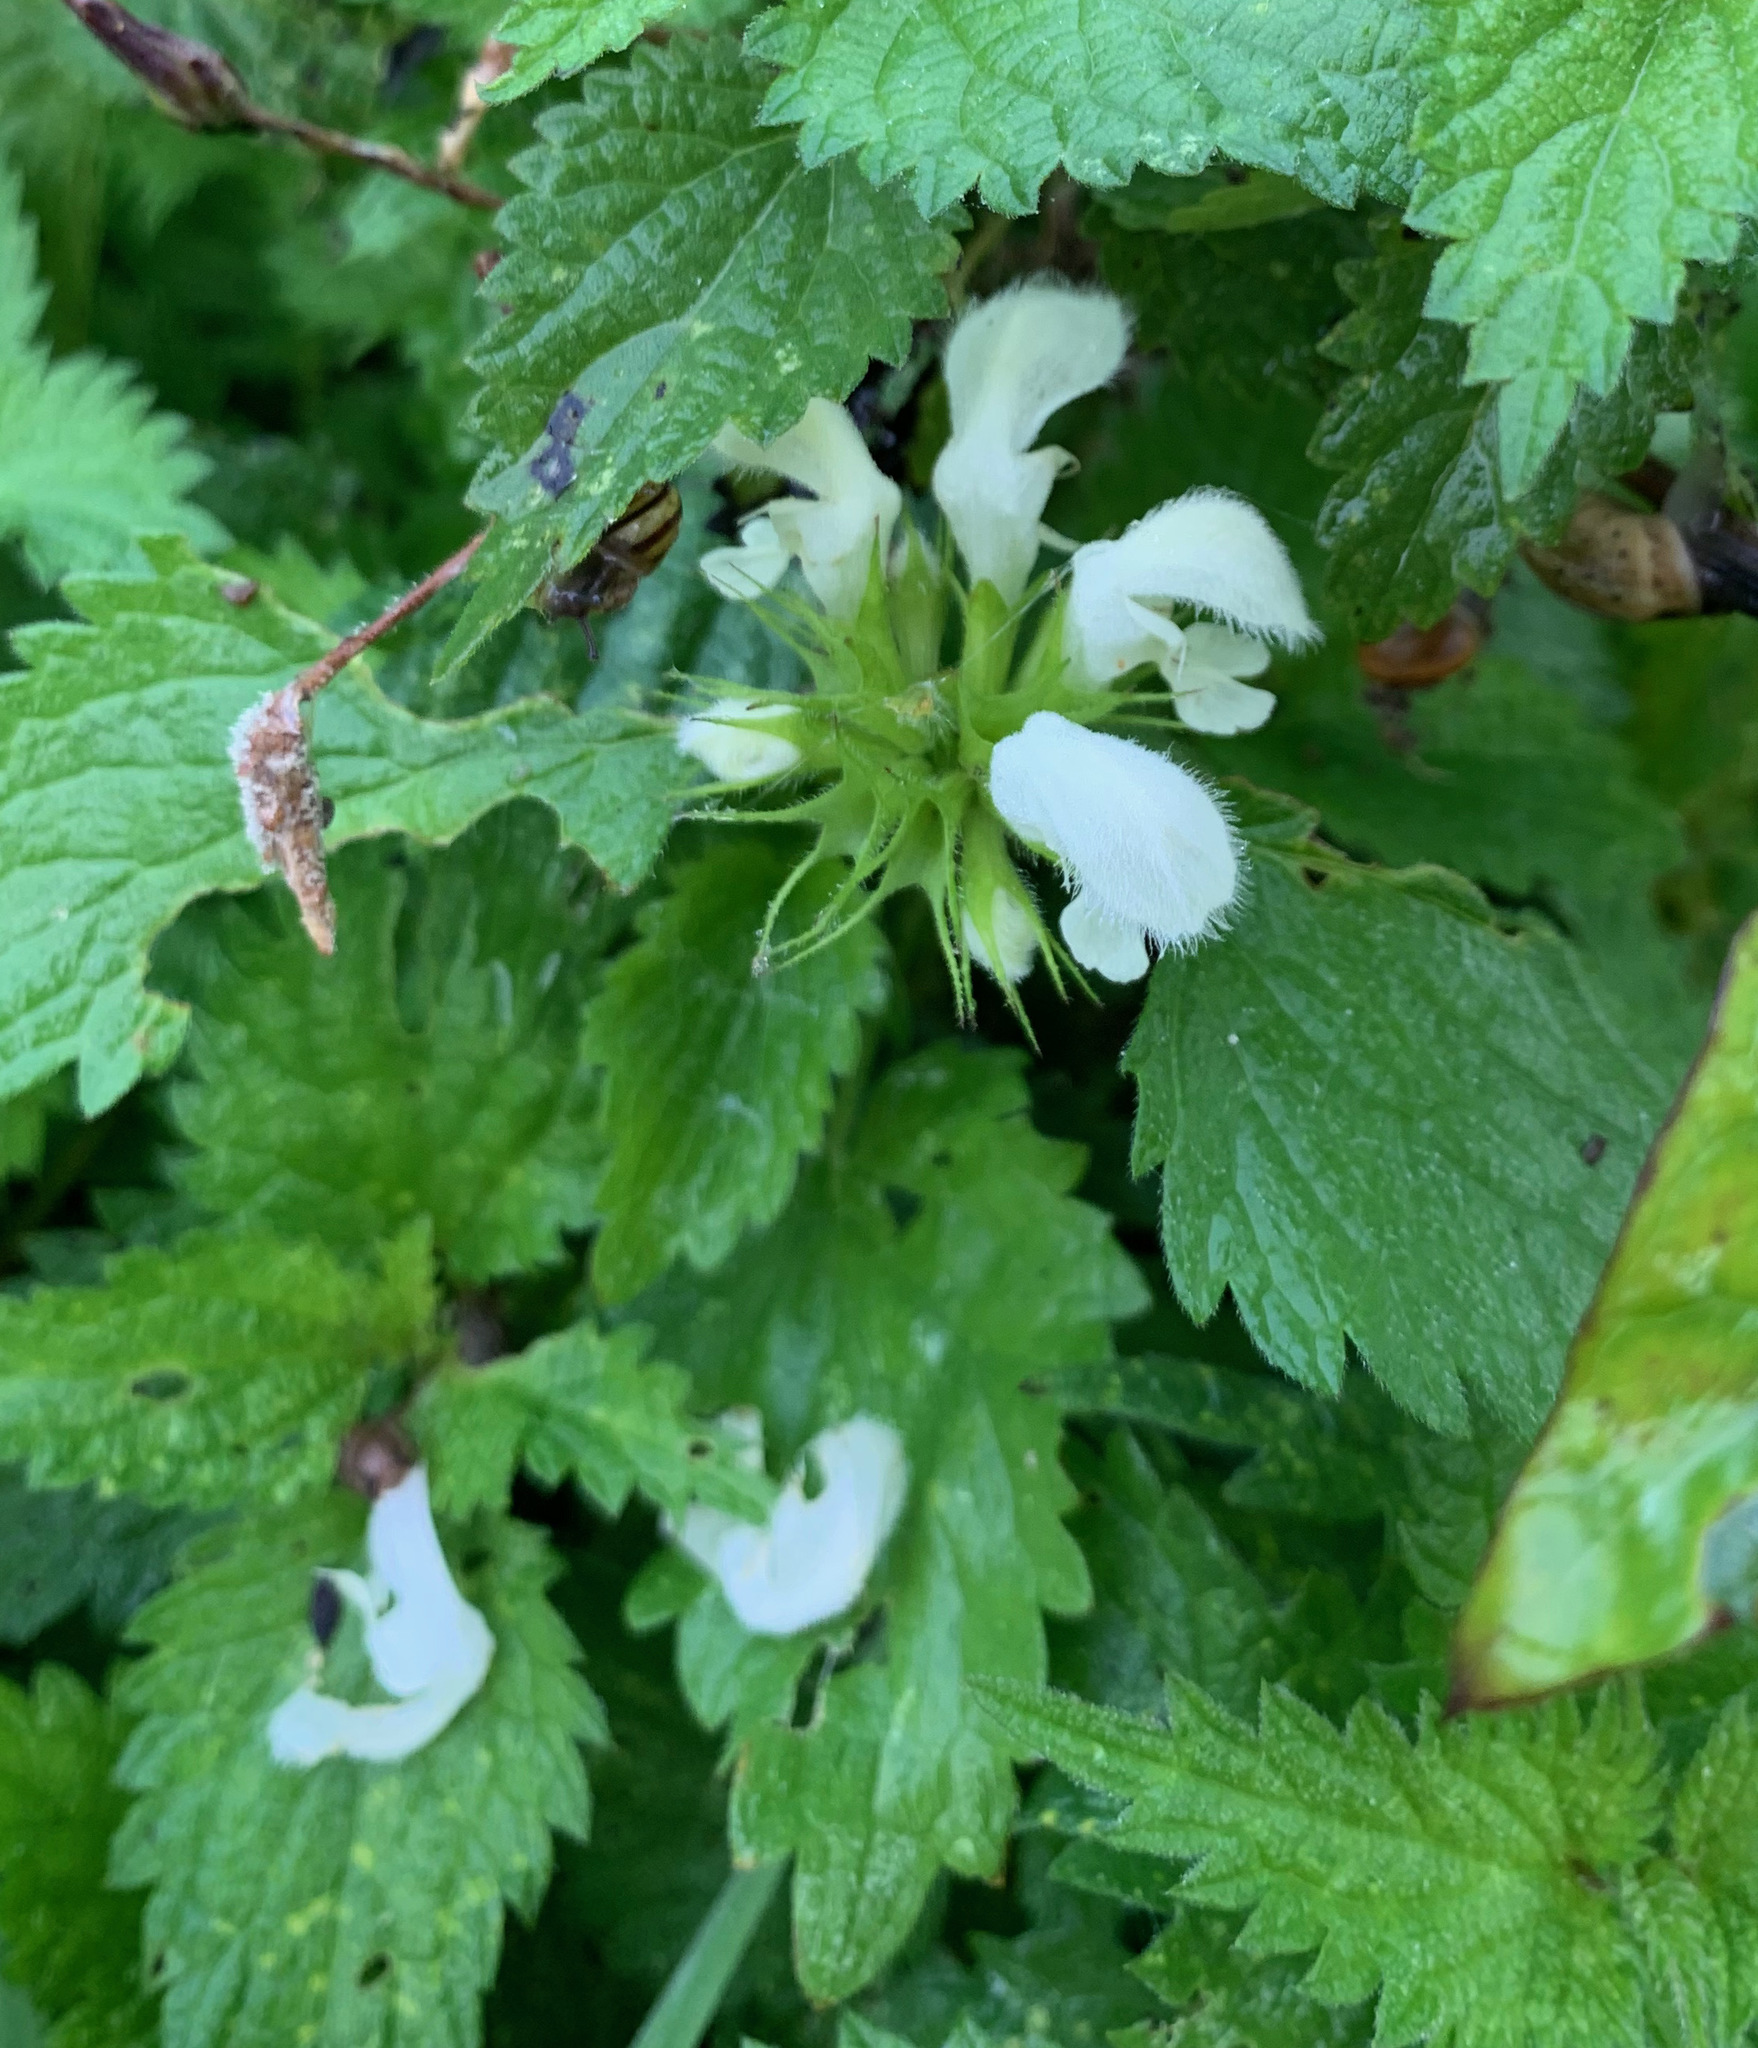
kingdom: Plantae
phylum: Tracheophyta
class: Magnoliopsida
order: Lamiales
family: Lamiaceae
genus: Lamium
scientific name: Lamium album
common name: White dead-nettle
